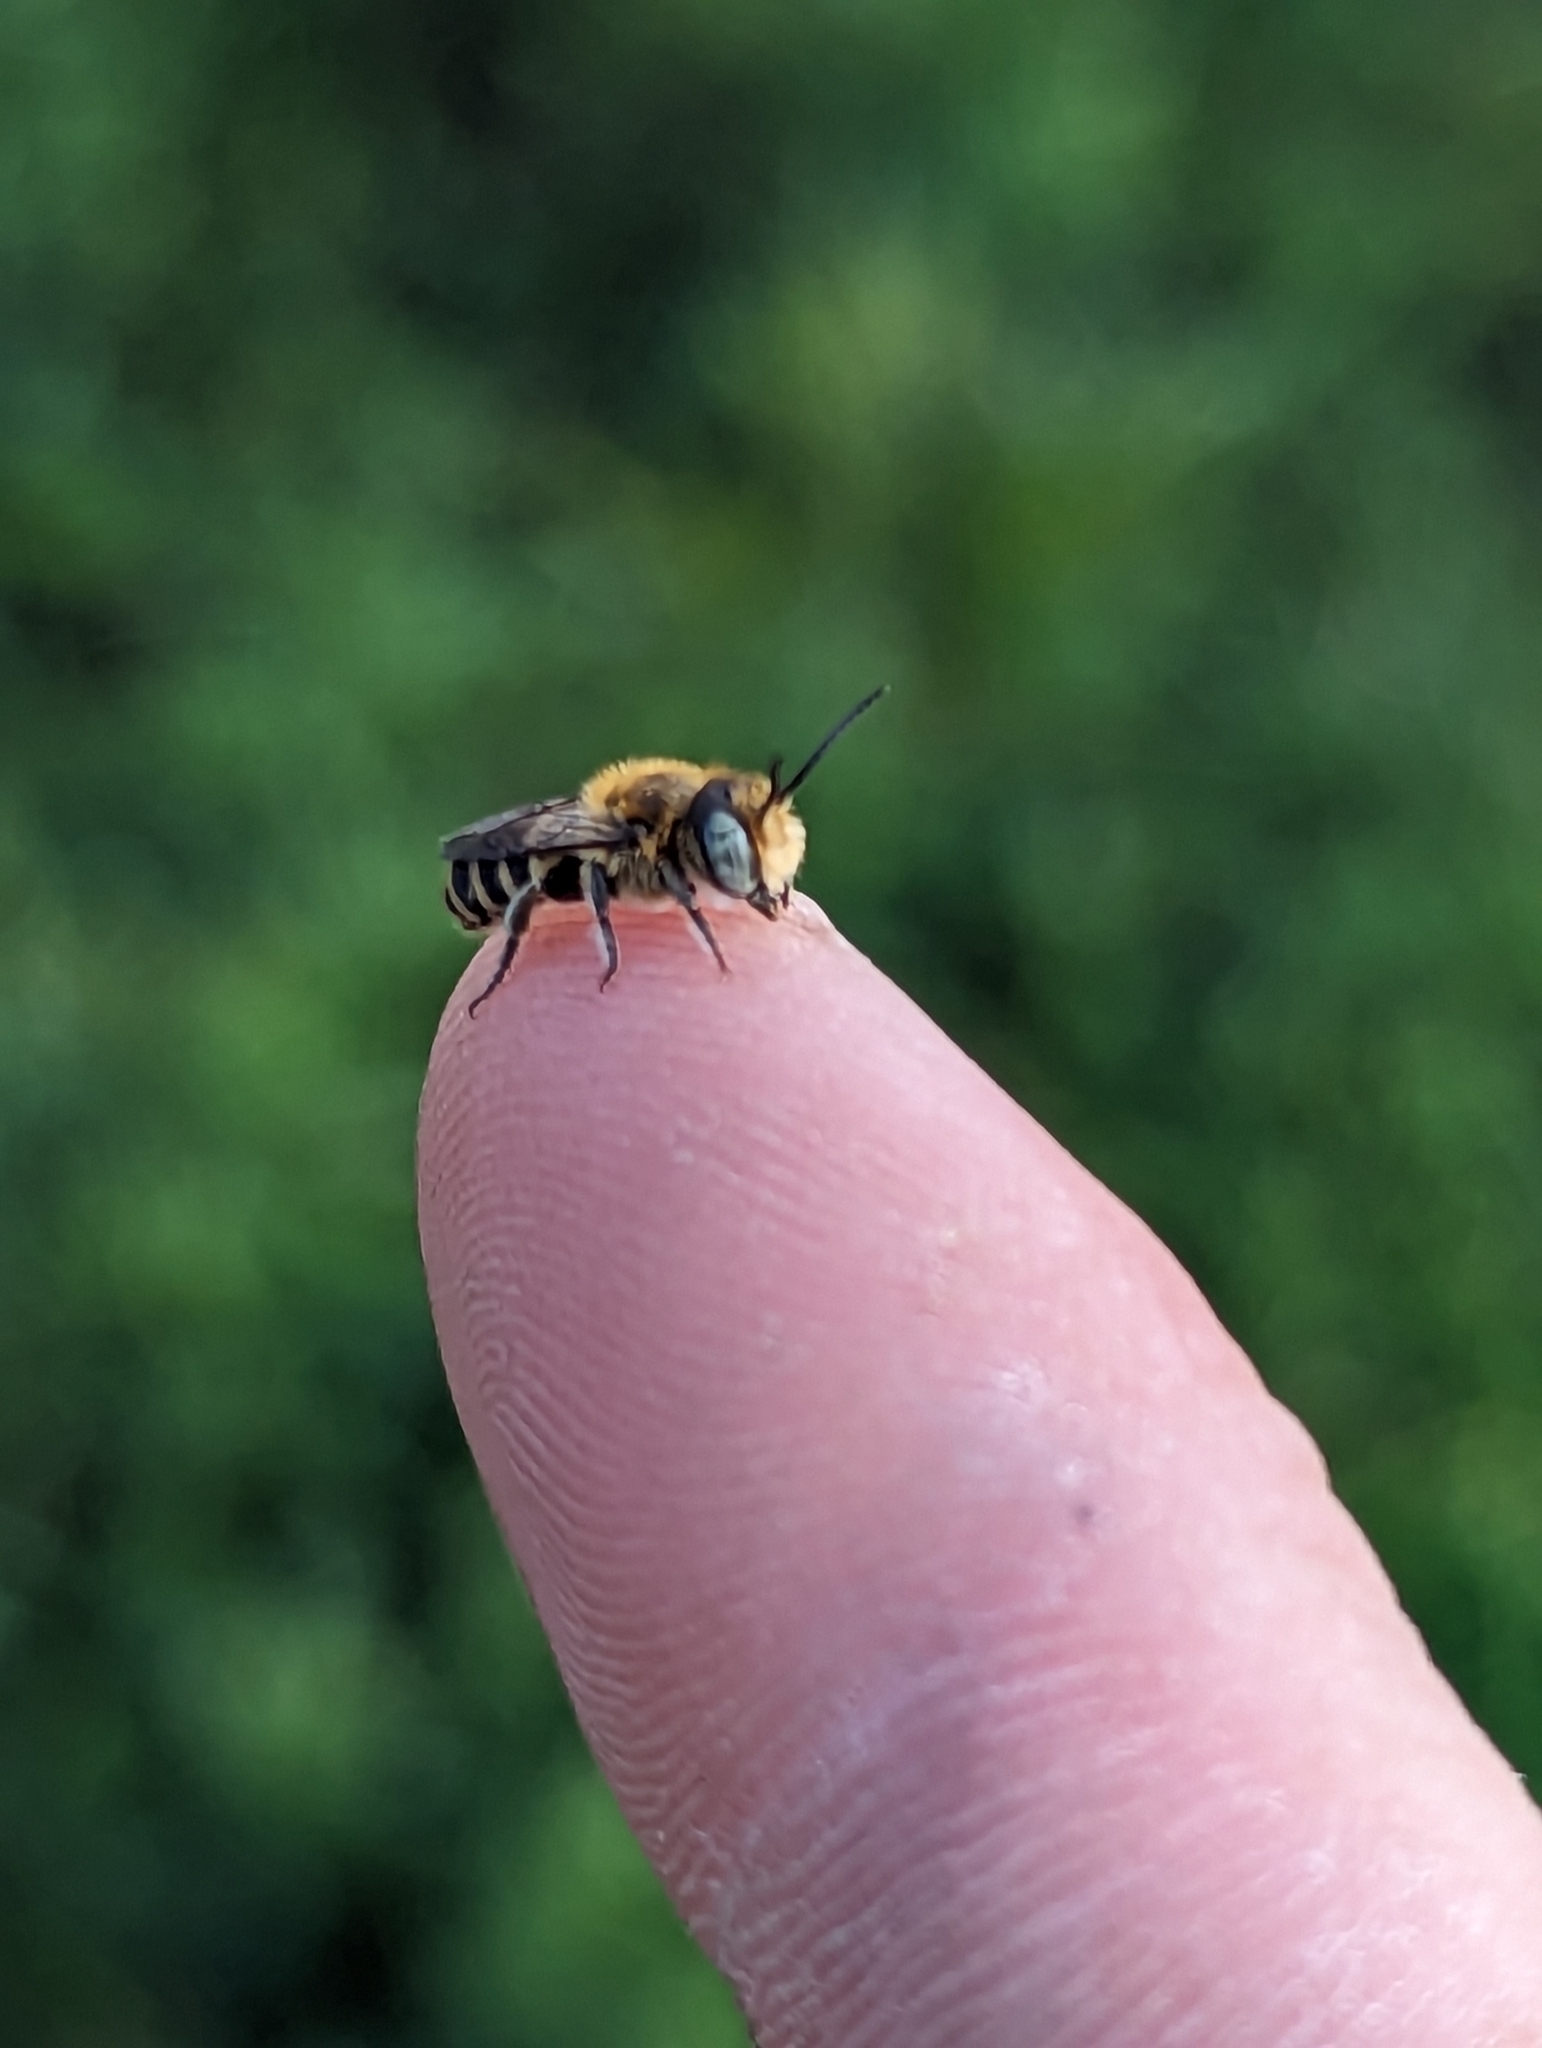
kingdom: Animalia
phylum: Arthropoda
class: Insecta
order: Hymenoptera
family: Megachilidae
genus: Megachile
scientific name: Megachile rotundata
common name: Alfalfa leafcutting bee
